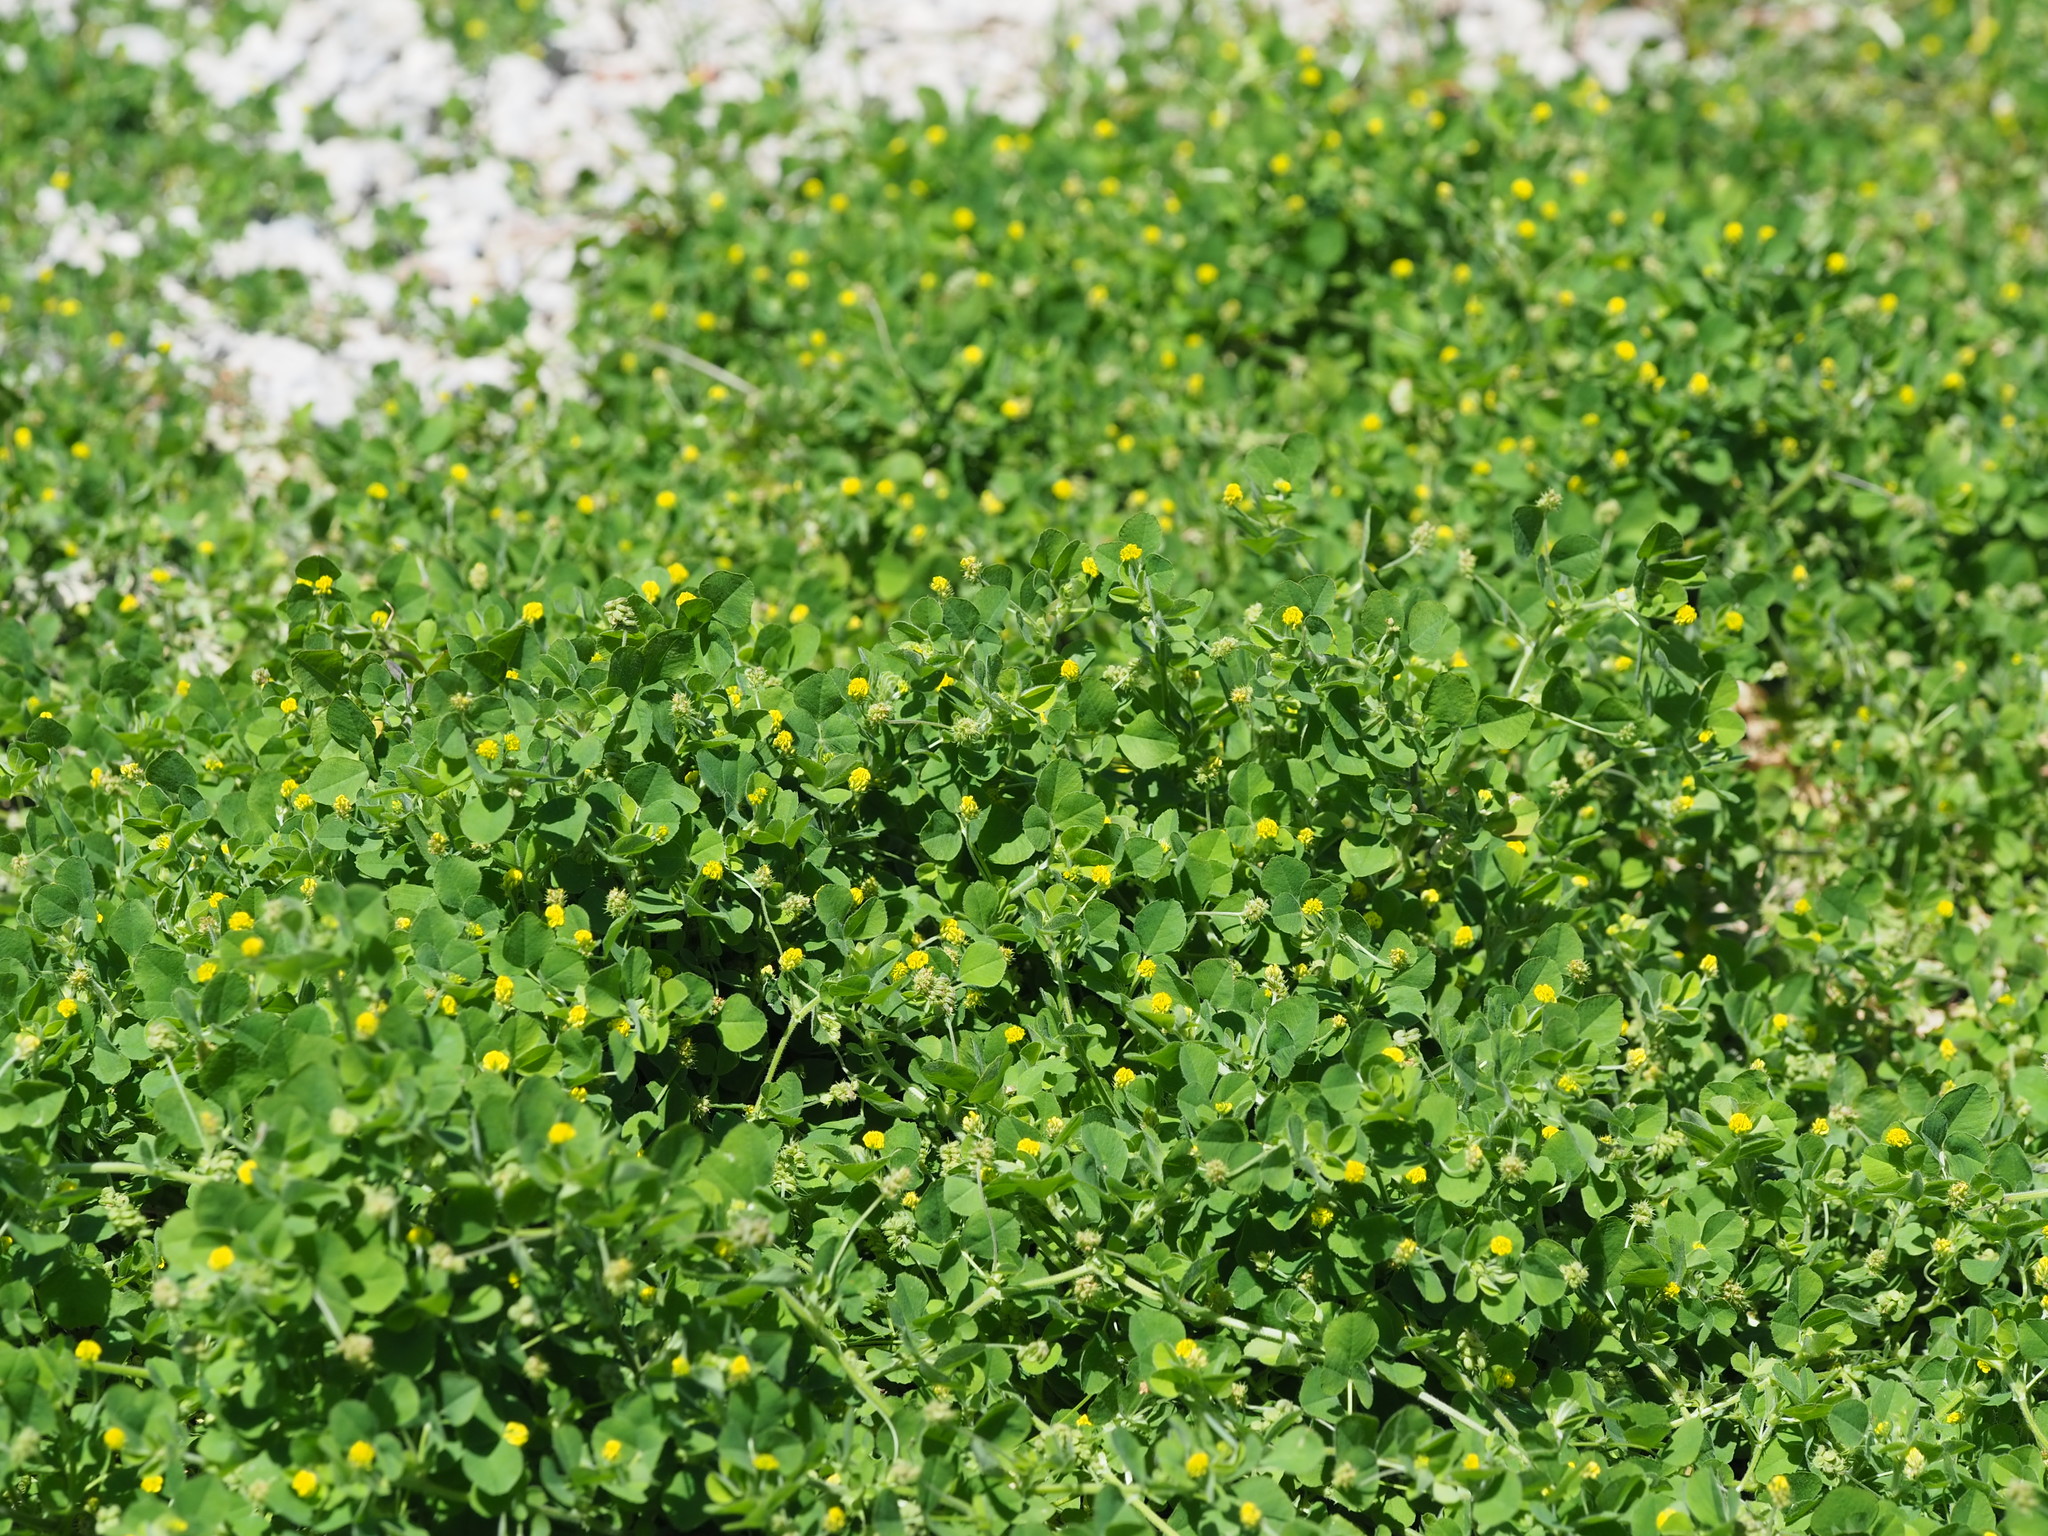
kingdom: Plantae
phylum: Tracheophyta
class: Magnoliopsida
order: Fabales
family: Fabaceae
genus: Medicago
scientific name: Medicago lupulina
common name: Black medick
